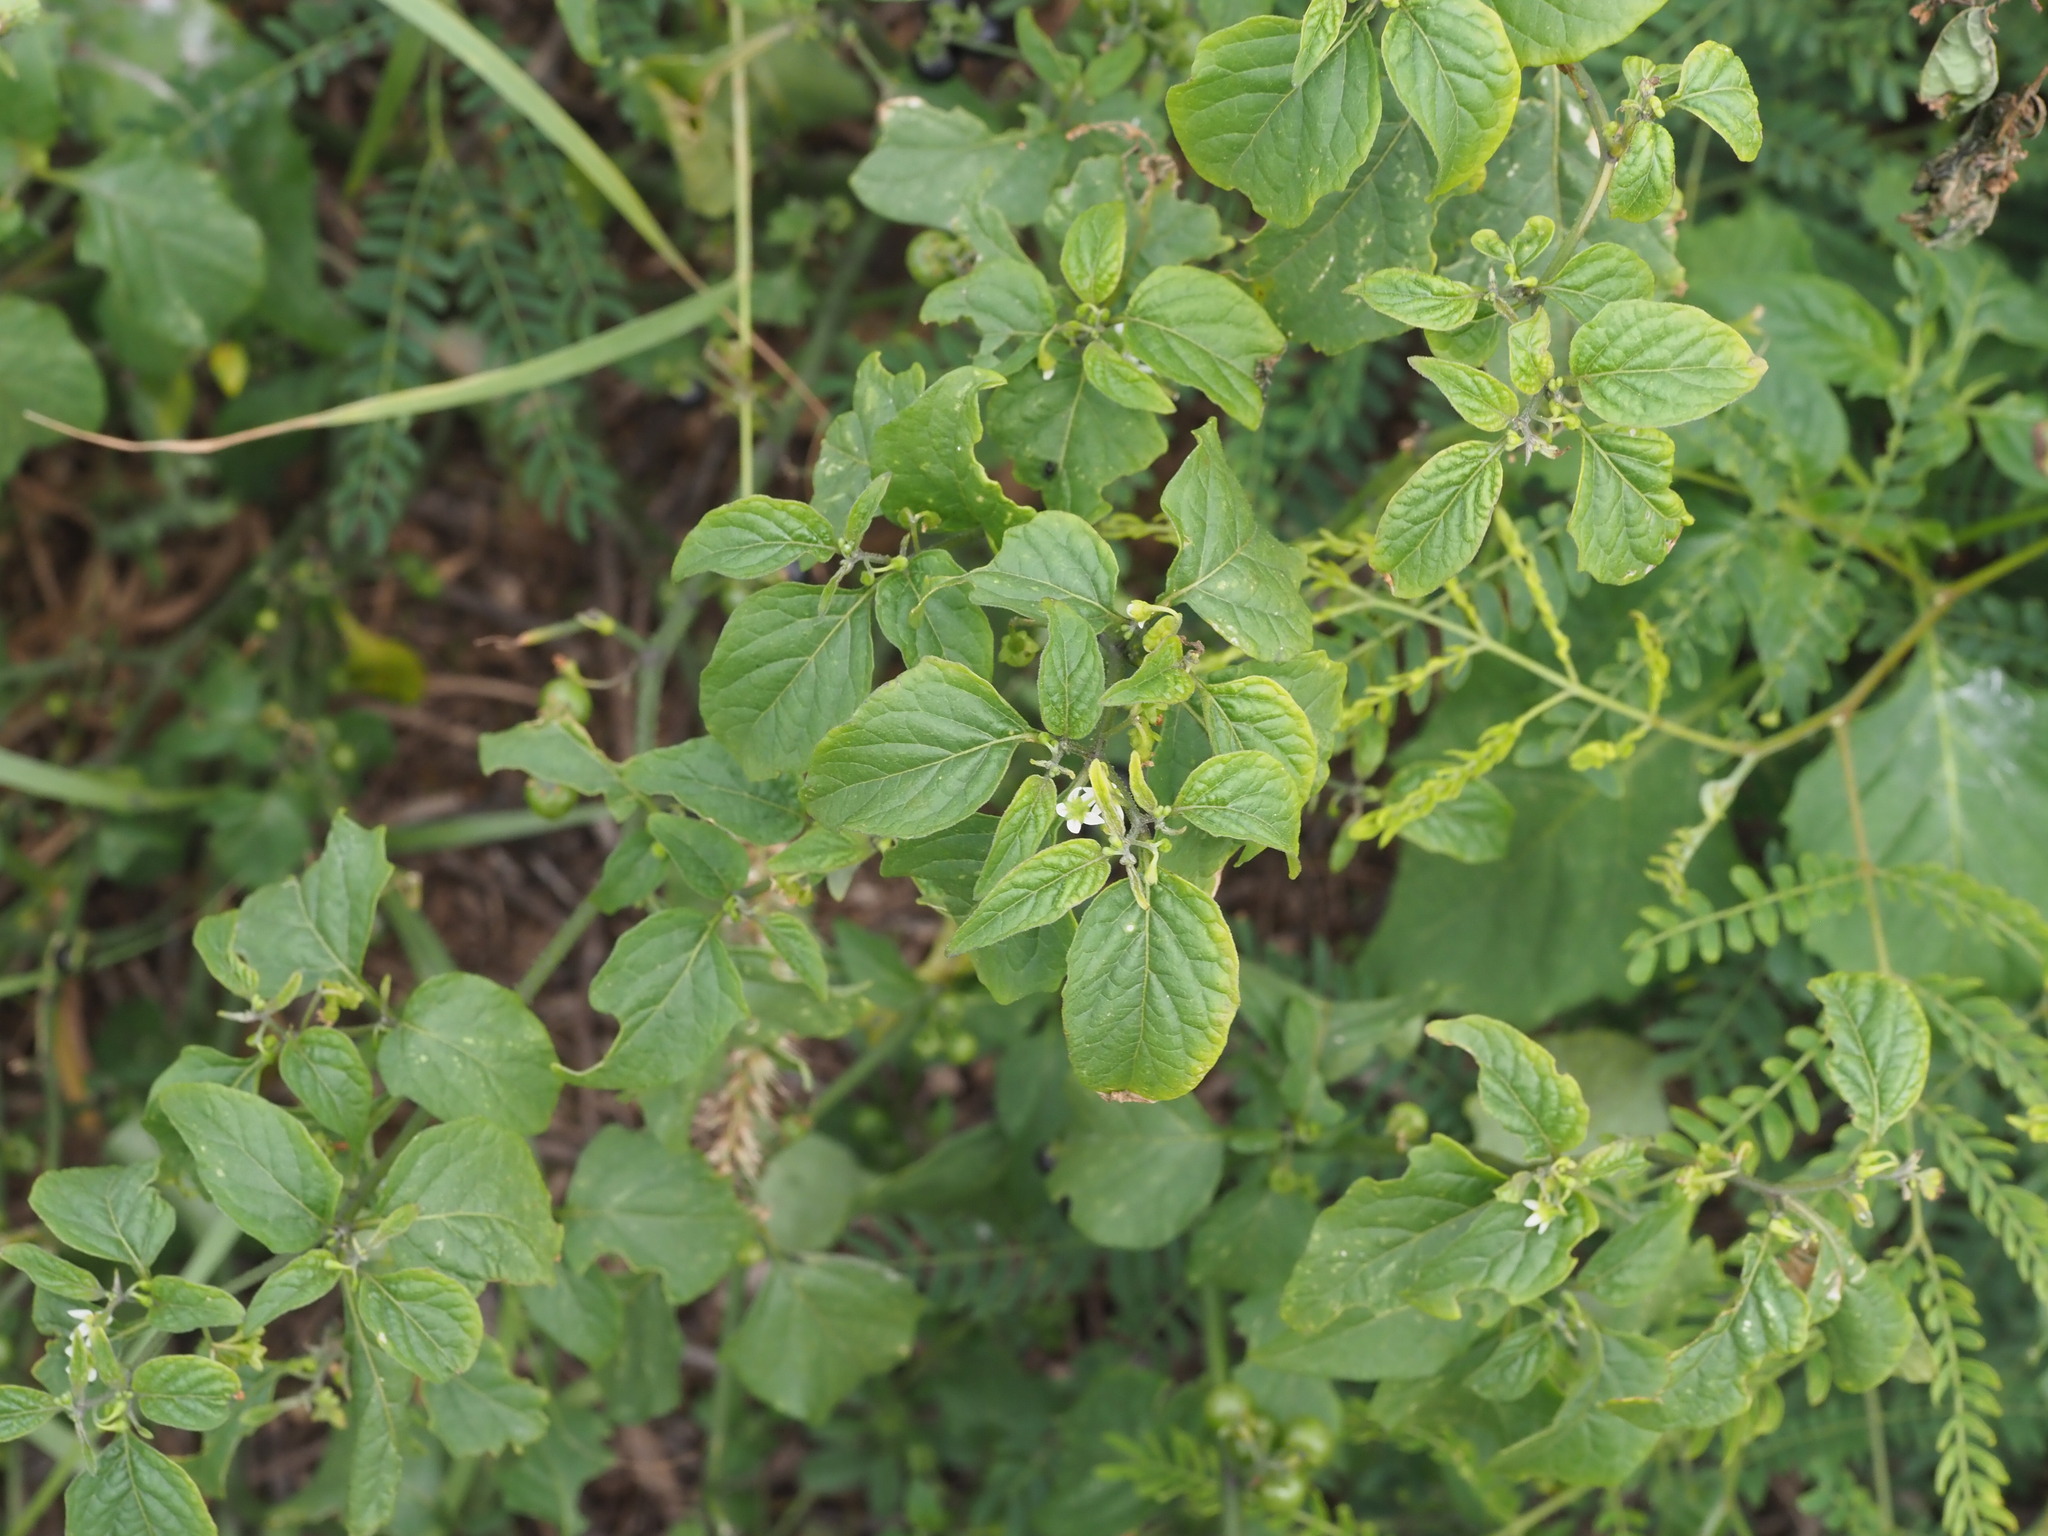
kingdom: Plantae
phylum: Tracheophyta
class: Magnoliopsida
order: Solanales
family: Solanaceae
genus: Solanum
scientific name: Solanum americanum
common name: American black nightshade
